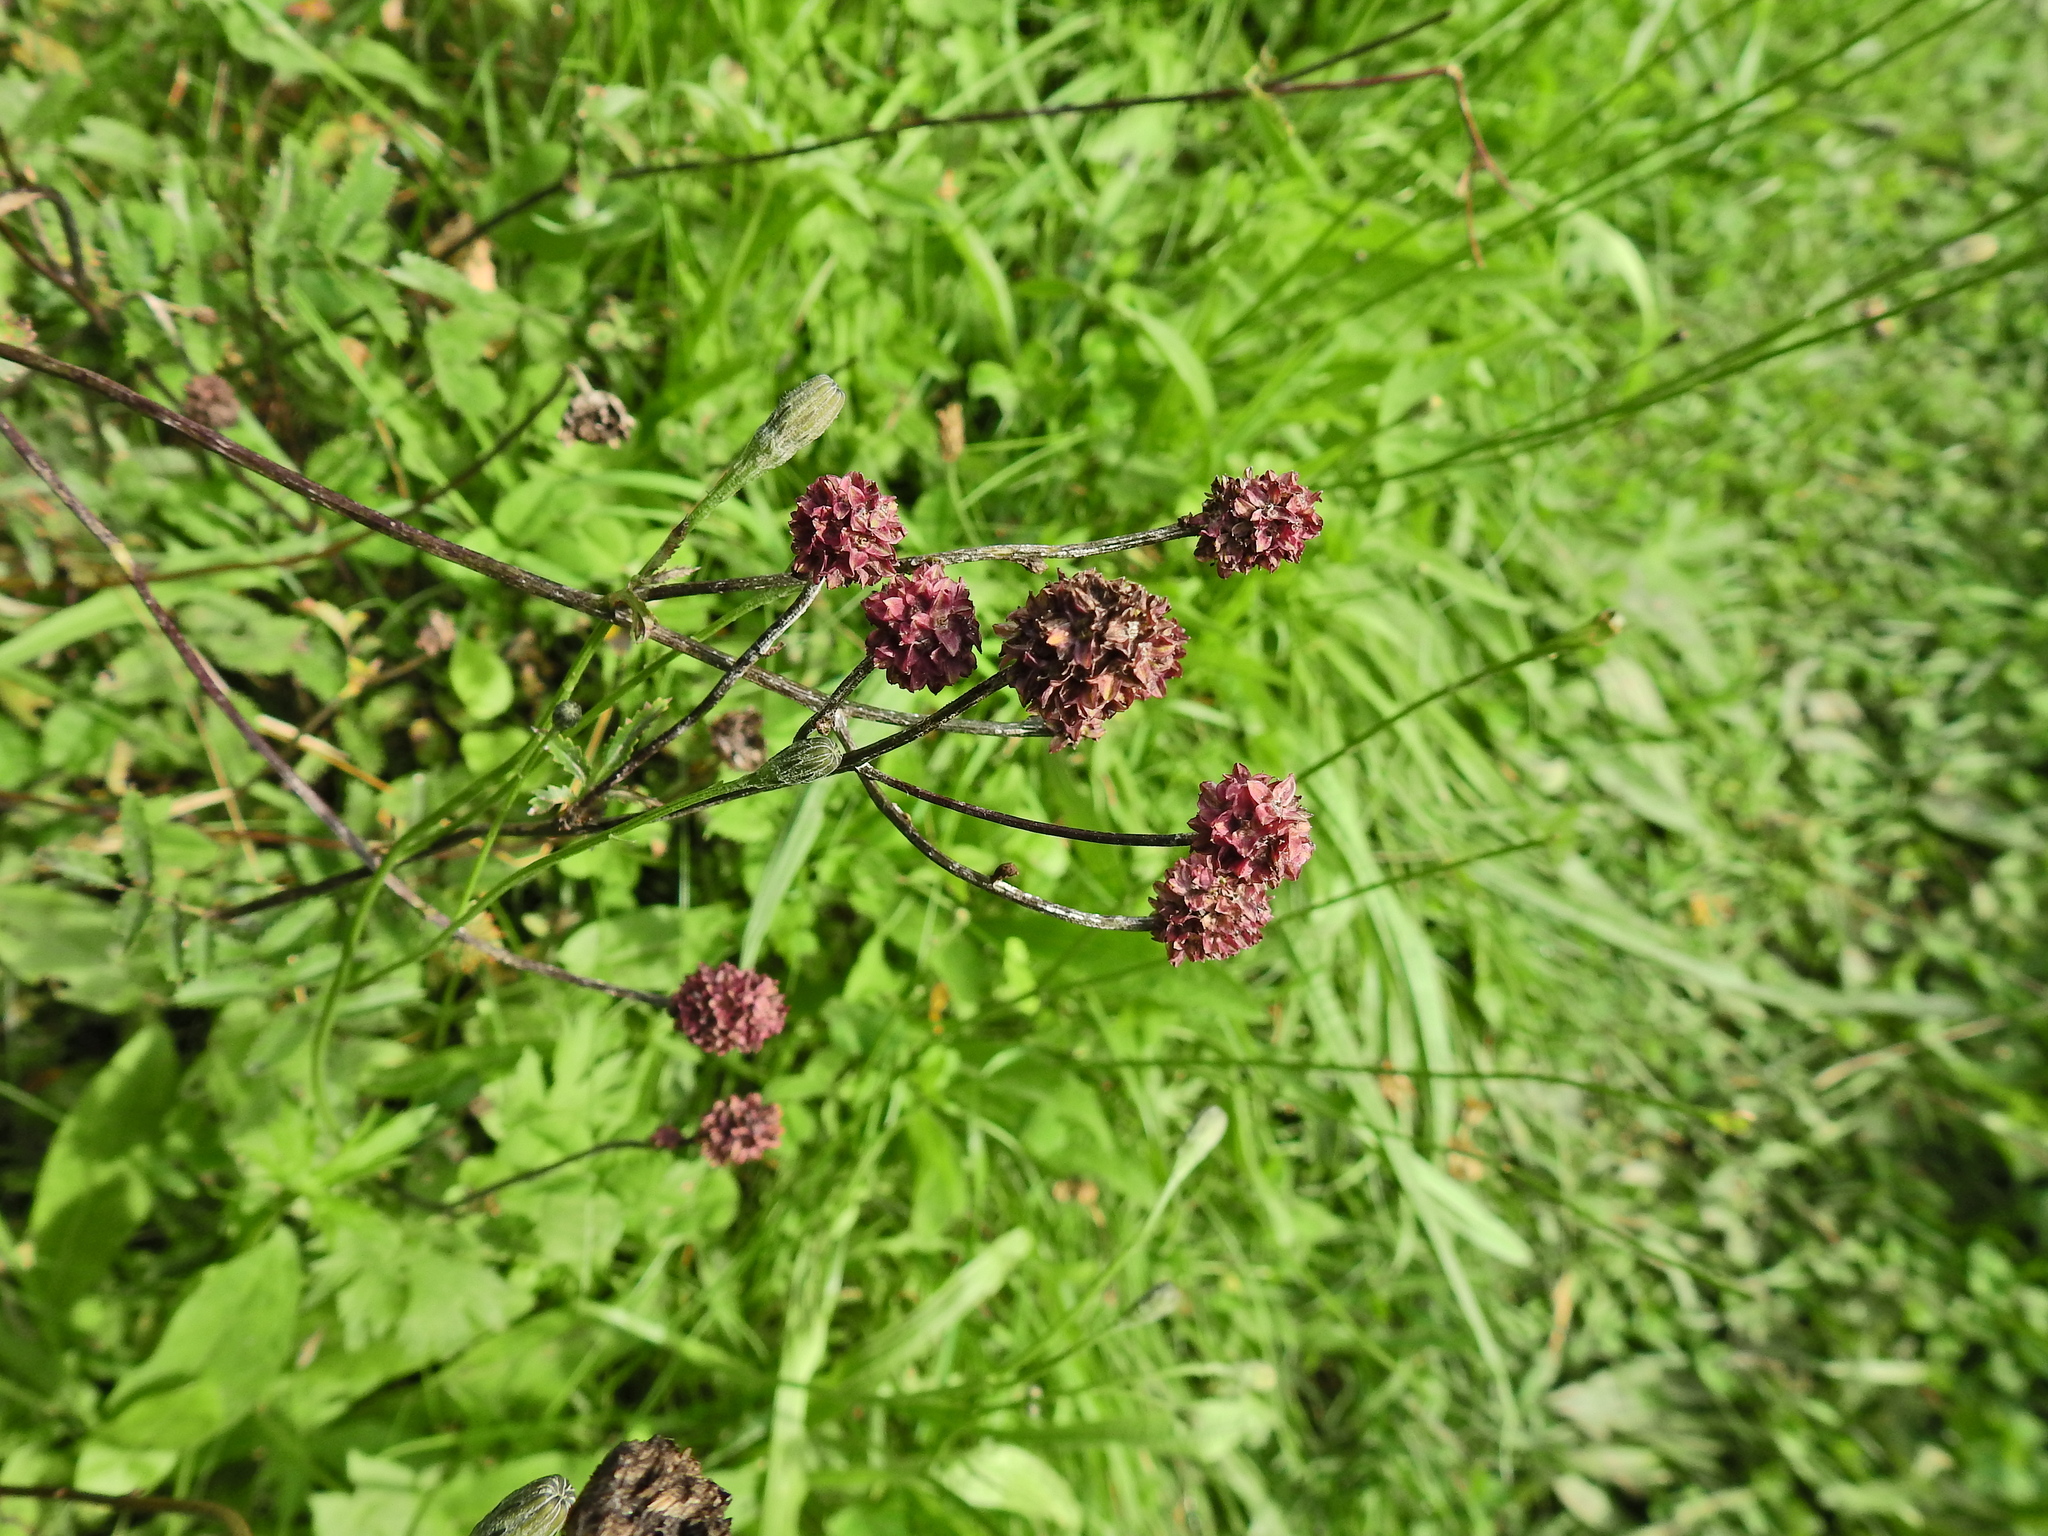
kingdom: Plantae
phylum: Tracheophyta
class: Magnoliopsida
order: Rosales
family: Rosaceae
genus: Sanguisorba
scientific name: Sanguisorba officinalis
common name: Great burnet
